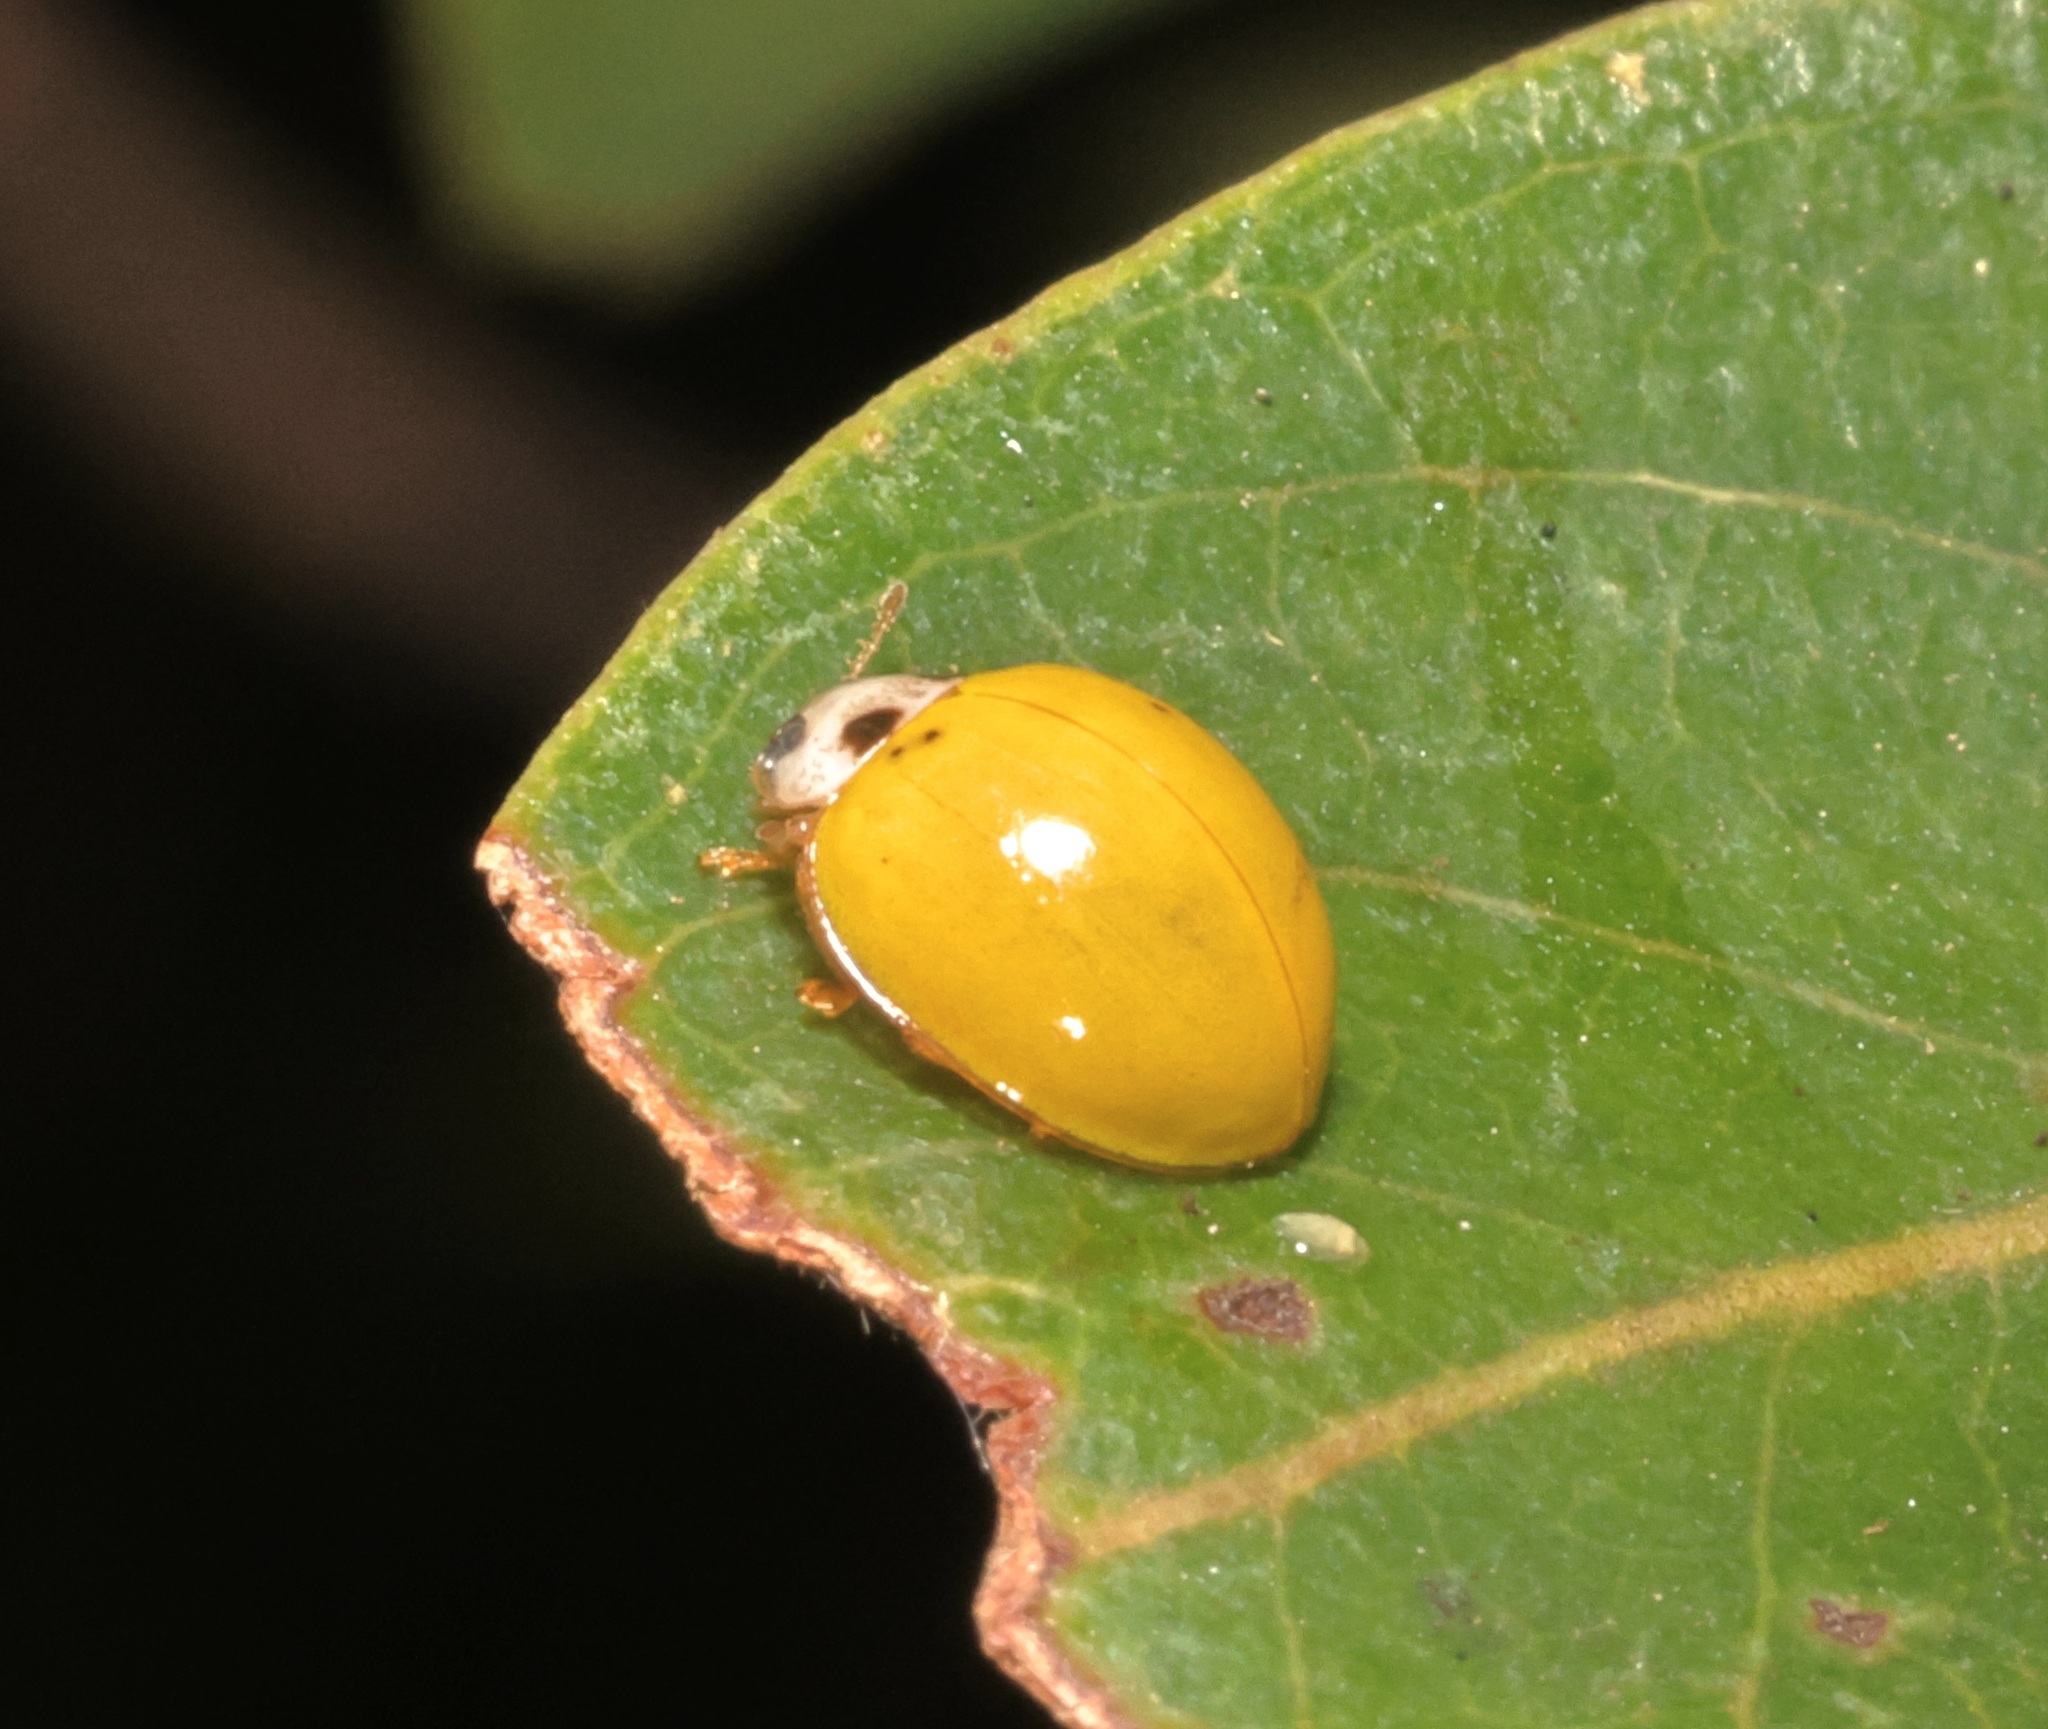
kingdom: Animalia
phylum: Arthropoda
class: Insecta
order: Coleoptera
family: Coccinellidae
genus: Illeis
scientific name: Illeis confusa
